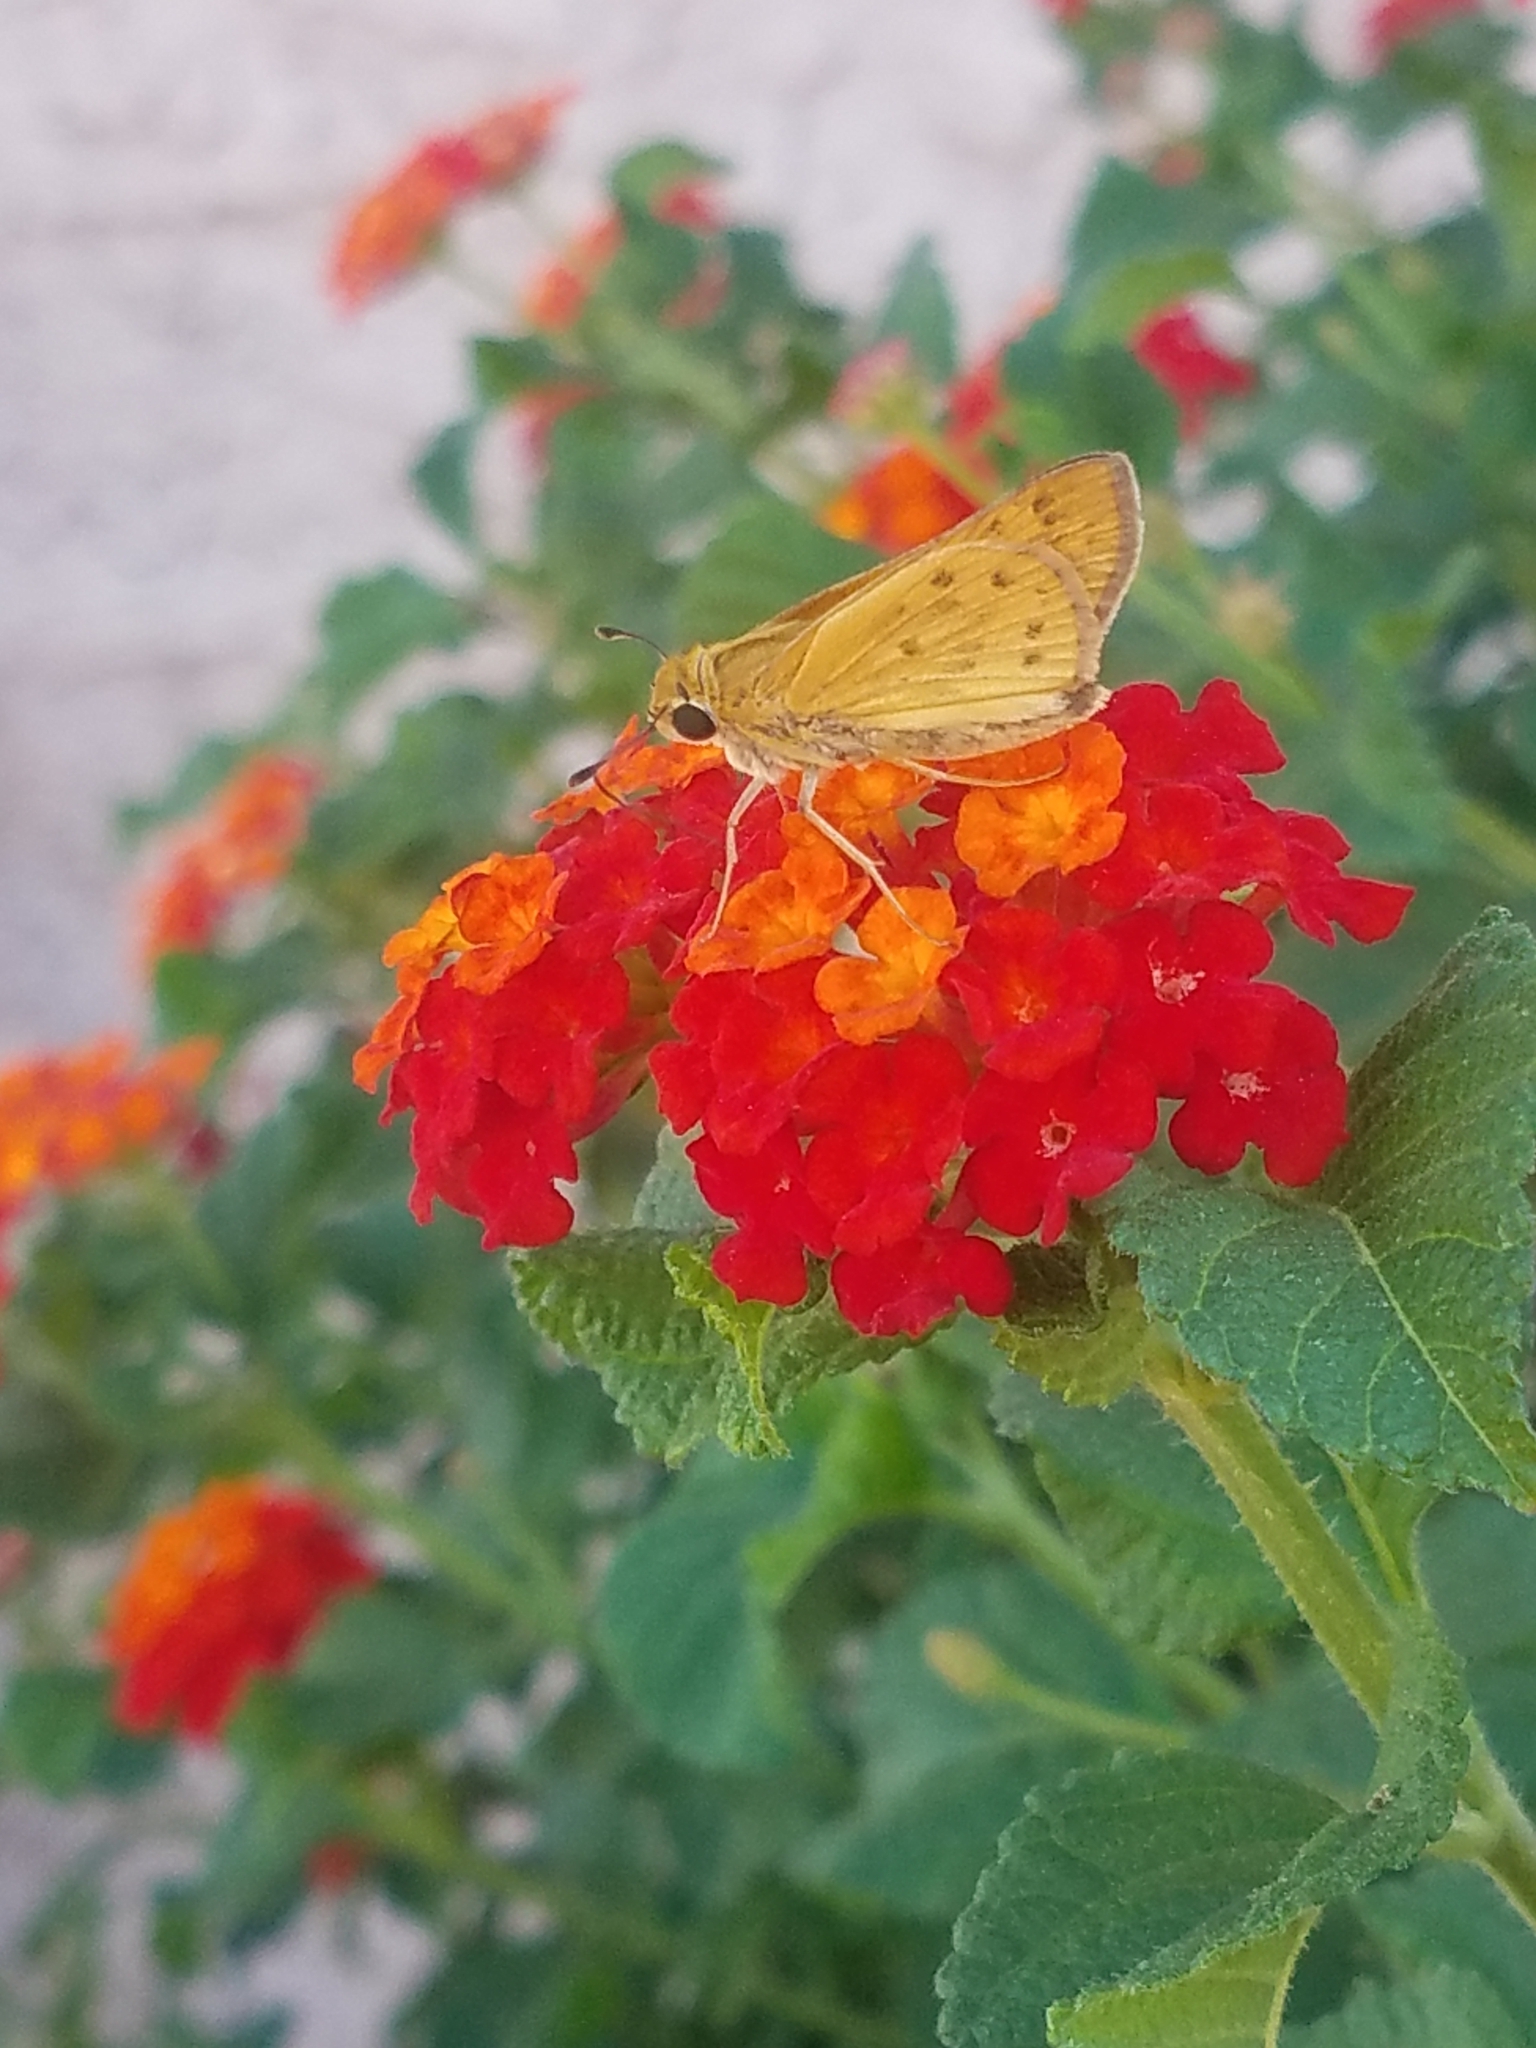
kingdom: Animalia
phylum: Arthropoda
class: Insecta
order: Lepidoptera
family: Hesperiidae
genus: Hylephila
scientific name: Hylephila phyleus
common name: Fiery skipper
